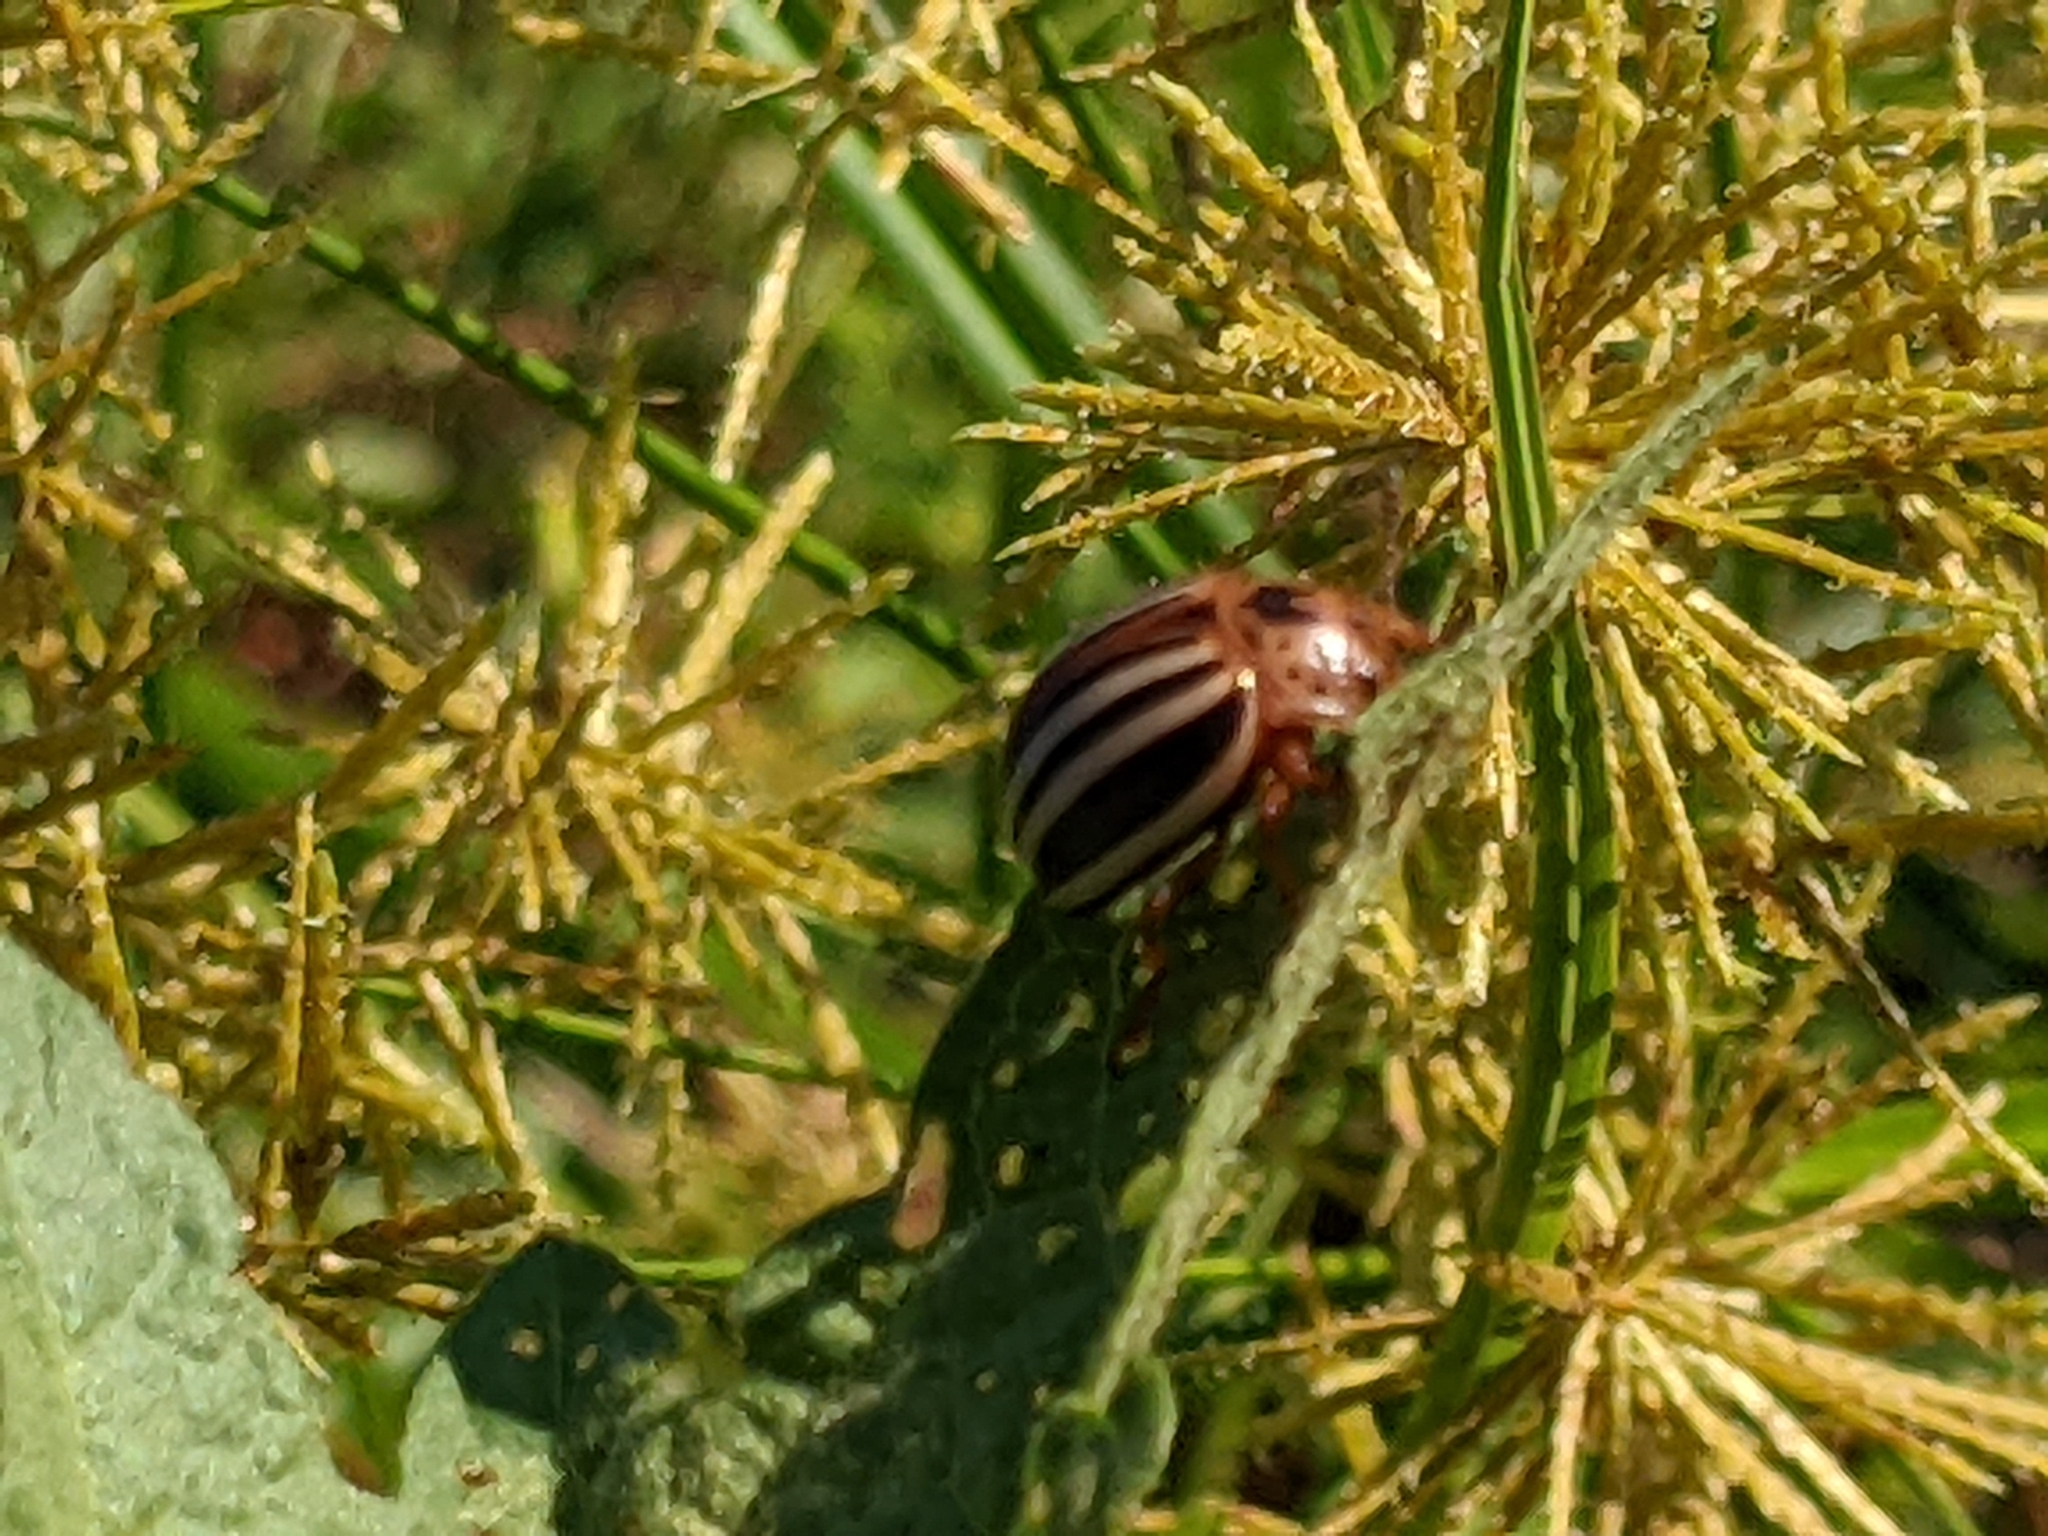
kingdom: Animalia
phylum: Arthropoda
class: Insecta
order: Coleoptera
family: Chrysomelidae
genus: Leptinotarsa
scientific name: Leptinotarsa juncta
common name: False potato beetle
